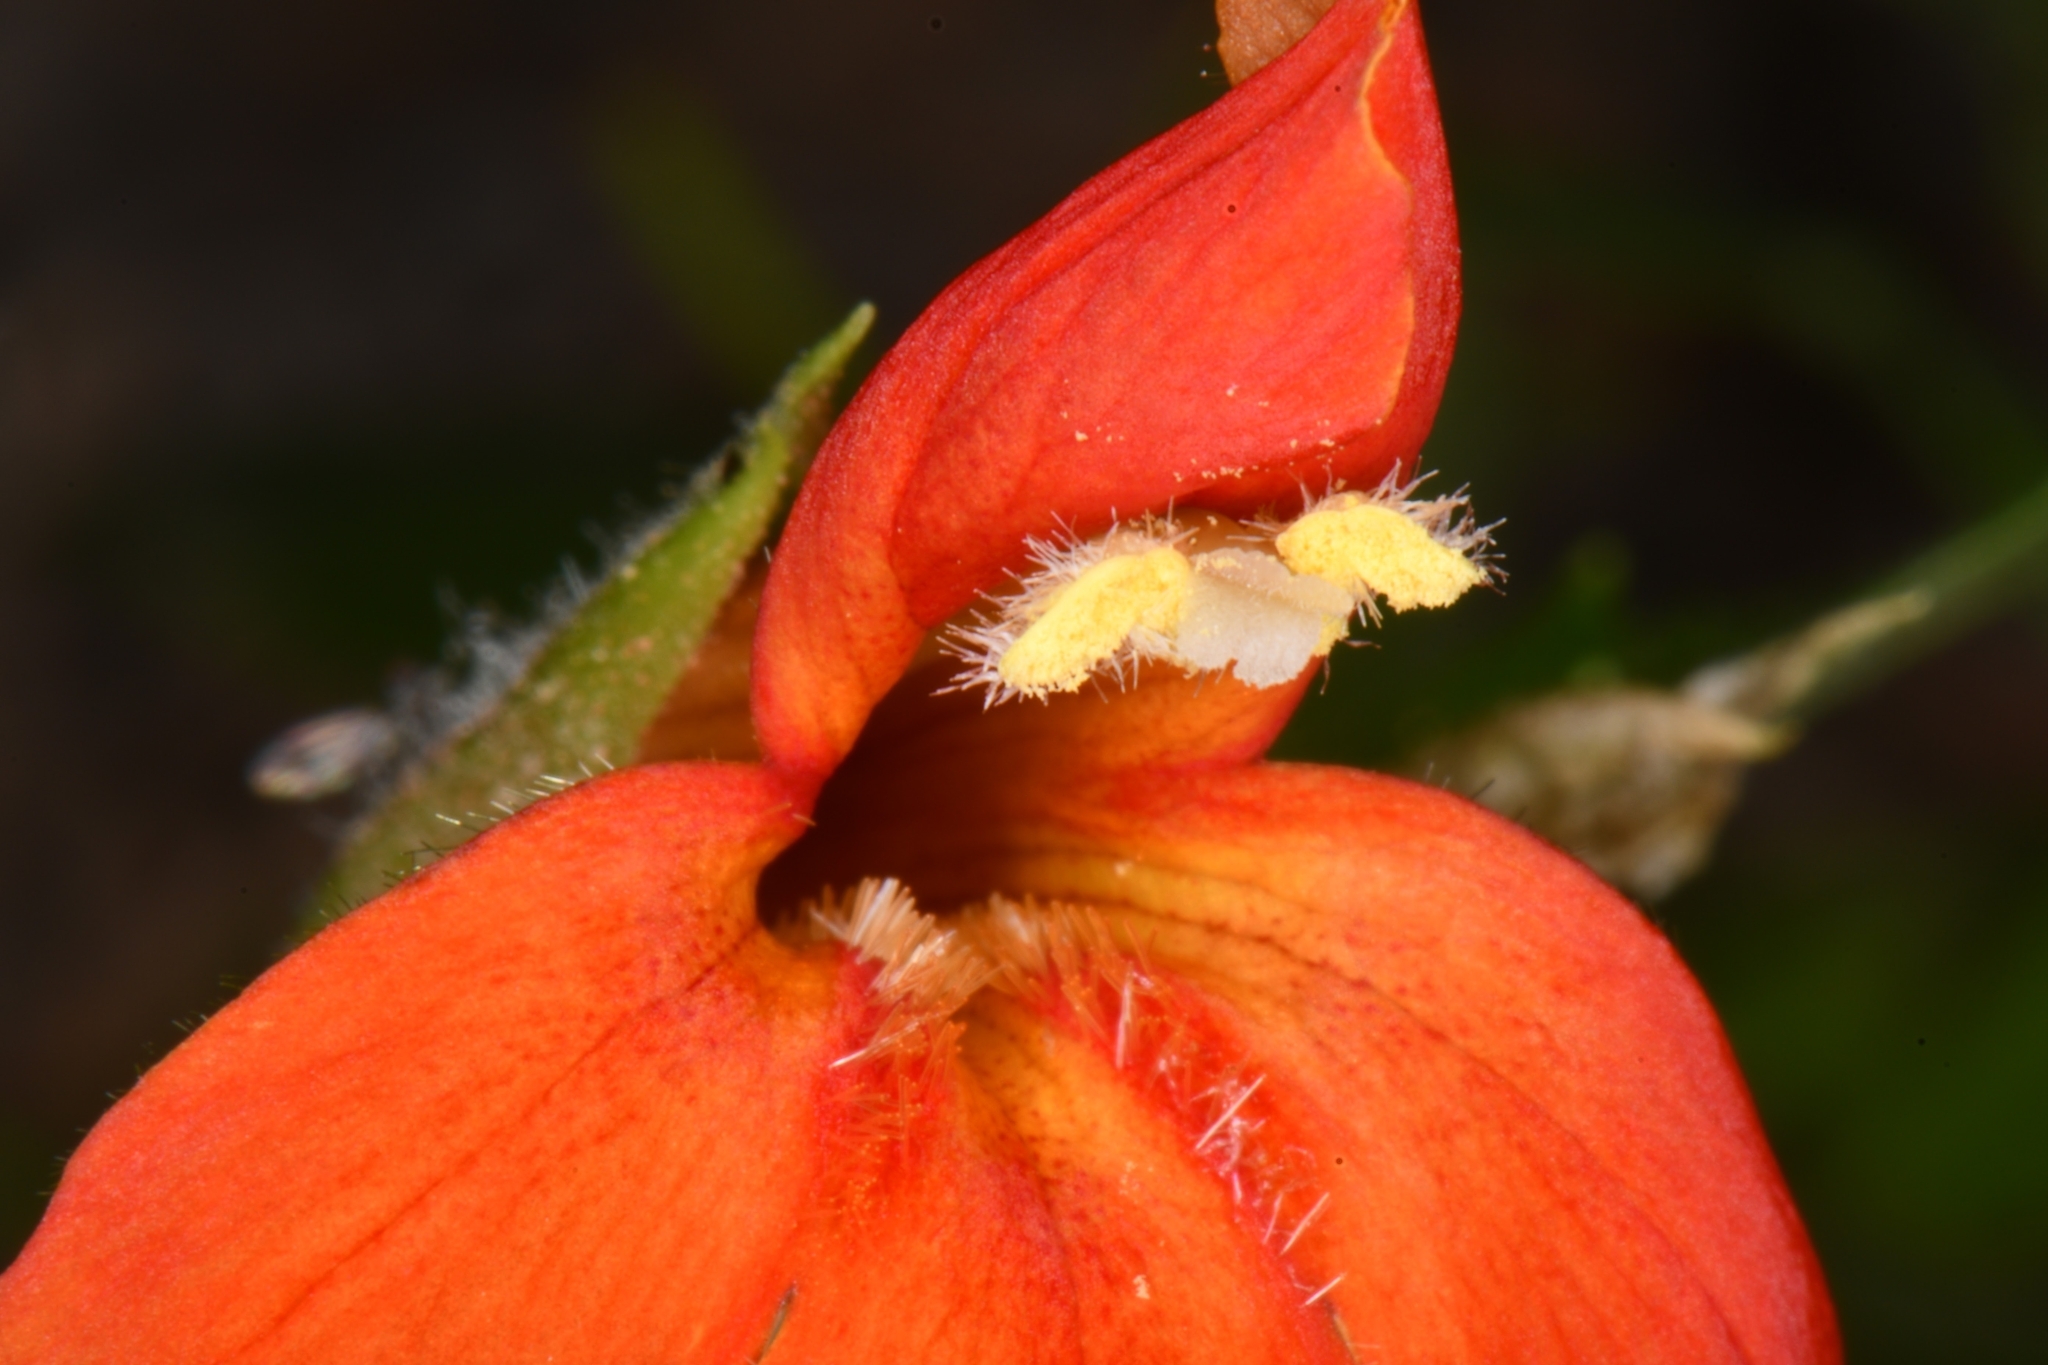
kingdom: Plantae
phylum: Tracheophyta
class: Magnoliopsida
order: Lamiales
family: Phrymaceae
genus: Erythranthe
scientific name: Erythranthe verbenacea
